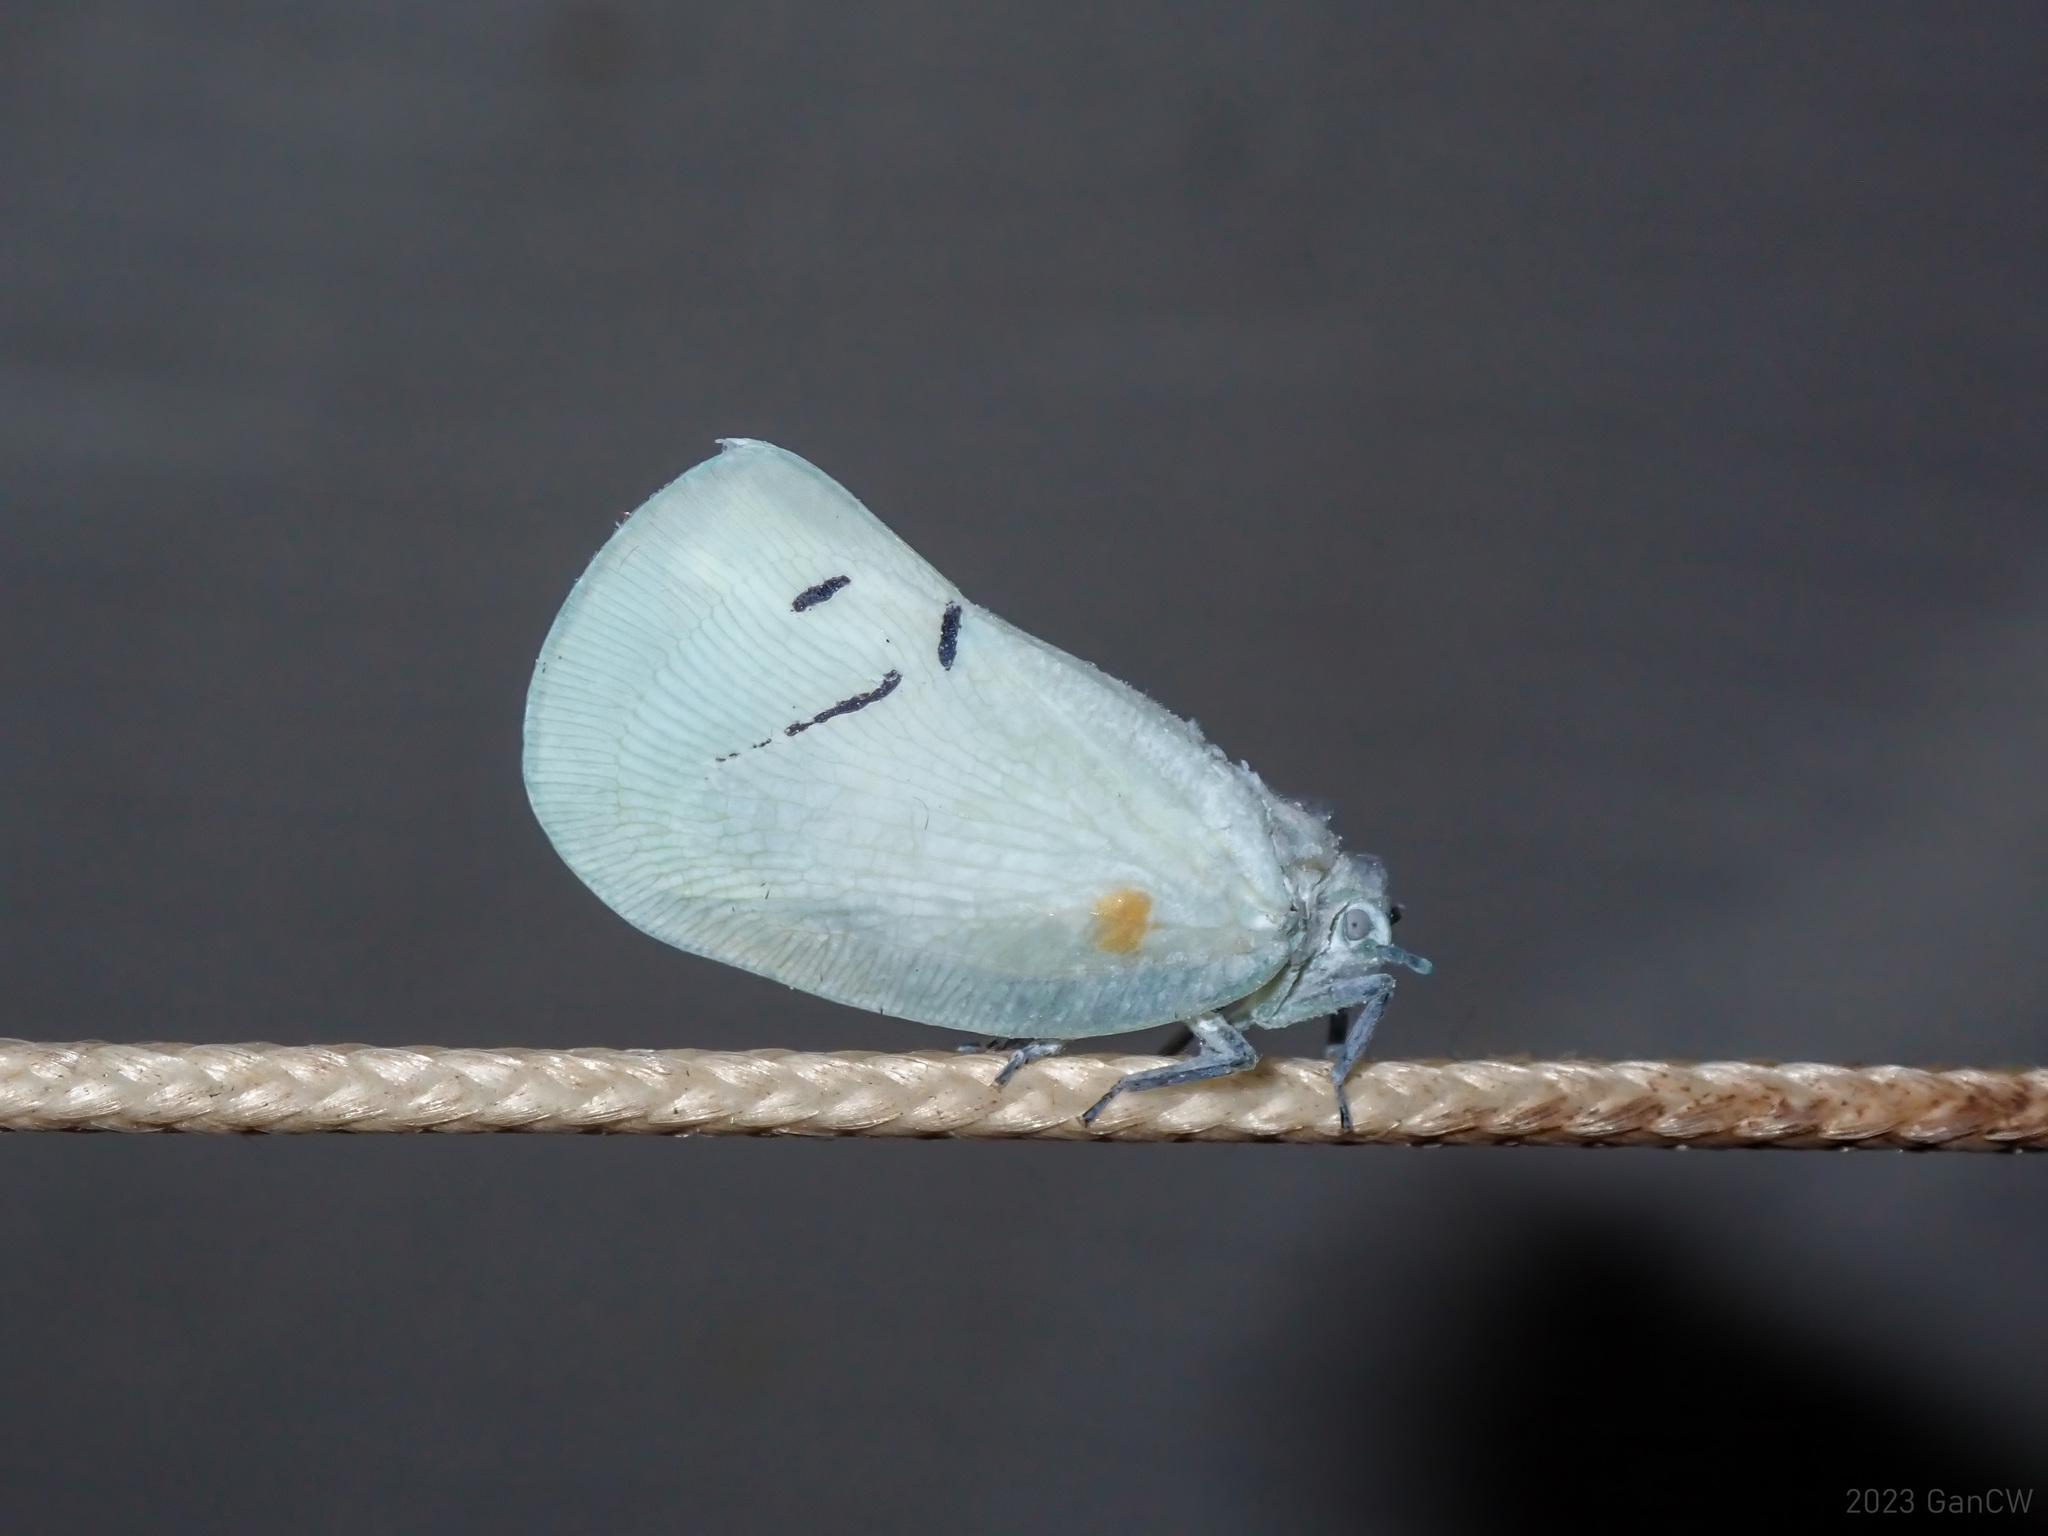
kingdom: Animalia
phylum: Arthropoda
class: Insecta
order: Hemiptera
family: Flatidae
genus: Cerynia
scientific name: Cerynia maria
